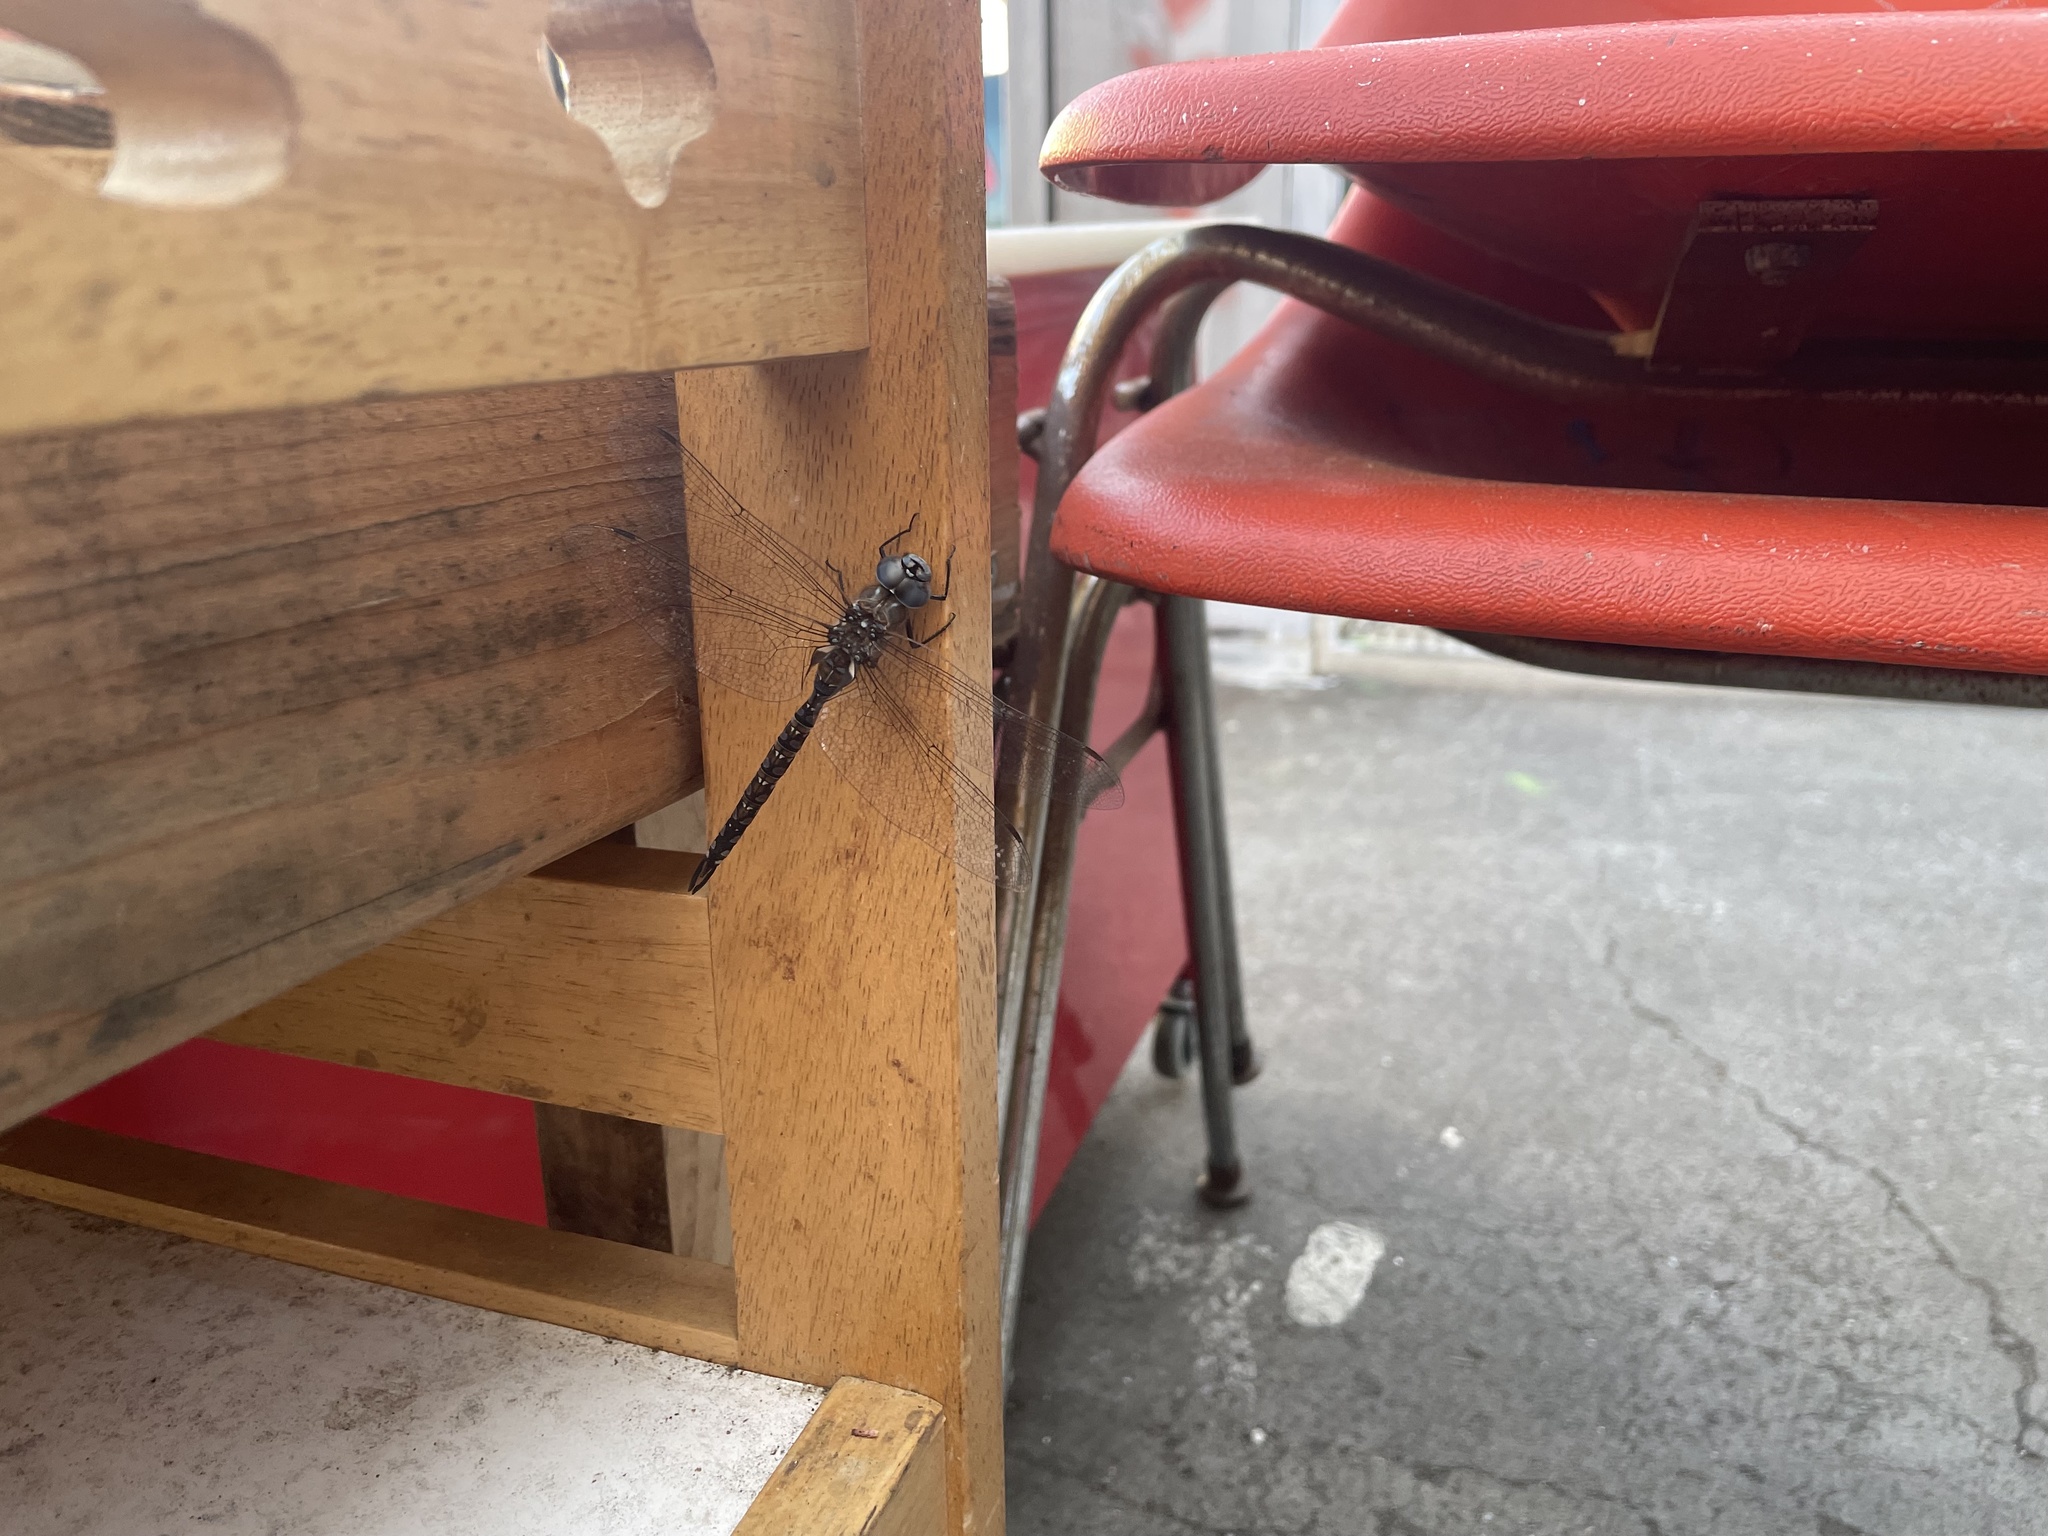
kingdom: Animalia
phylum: Arthropoda
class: Insecta
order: Odonata
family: Aeshnidae
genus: Rhionaeschna
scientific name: Rhionaeschna multicolor
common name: Blue-eyed darner
